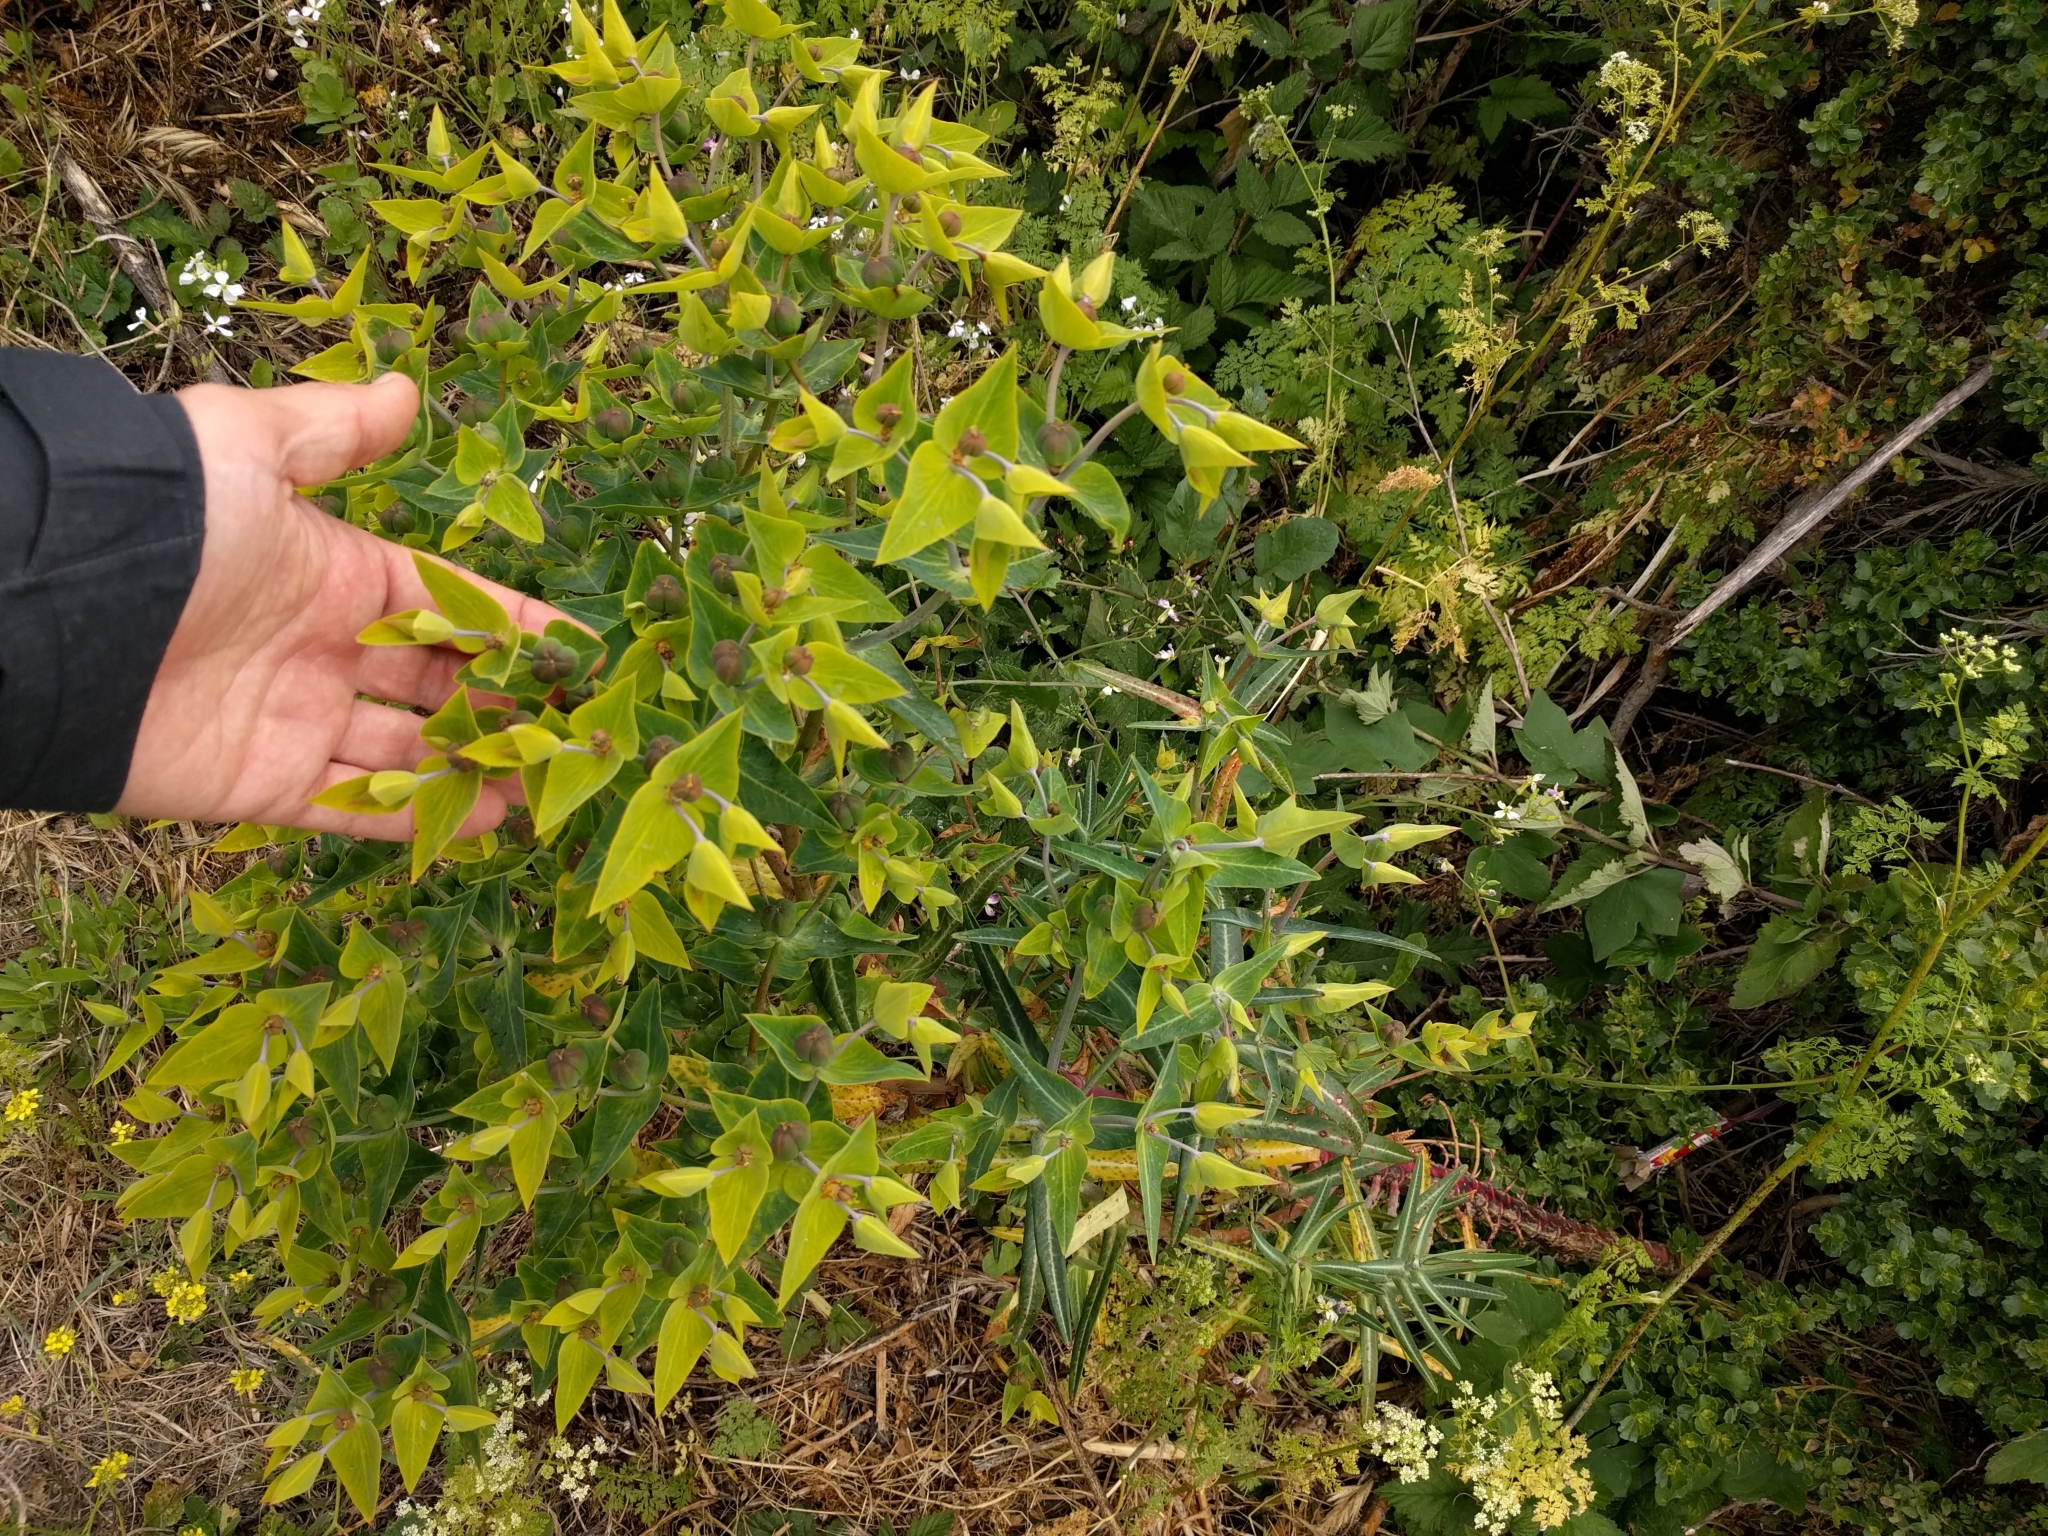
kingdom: Plantae
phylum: Tracheophyta
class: Magnoliopsida
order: Malpighiales
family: Euphorbiaceae
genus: Euphorbia
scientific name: Euphorbia lathyris
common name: Caper spurge
